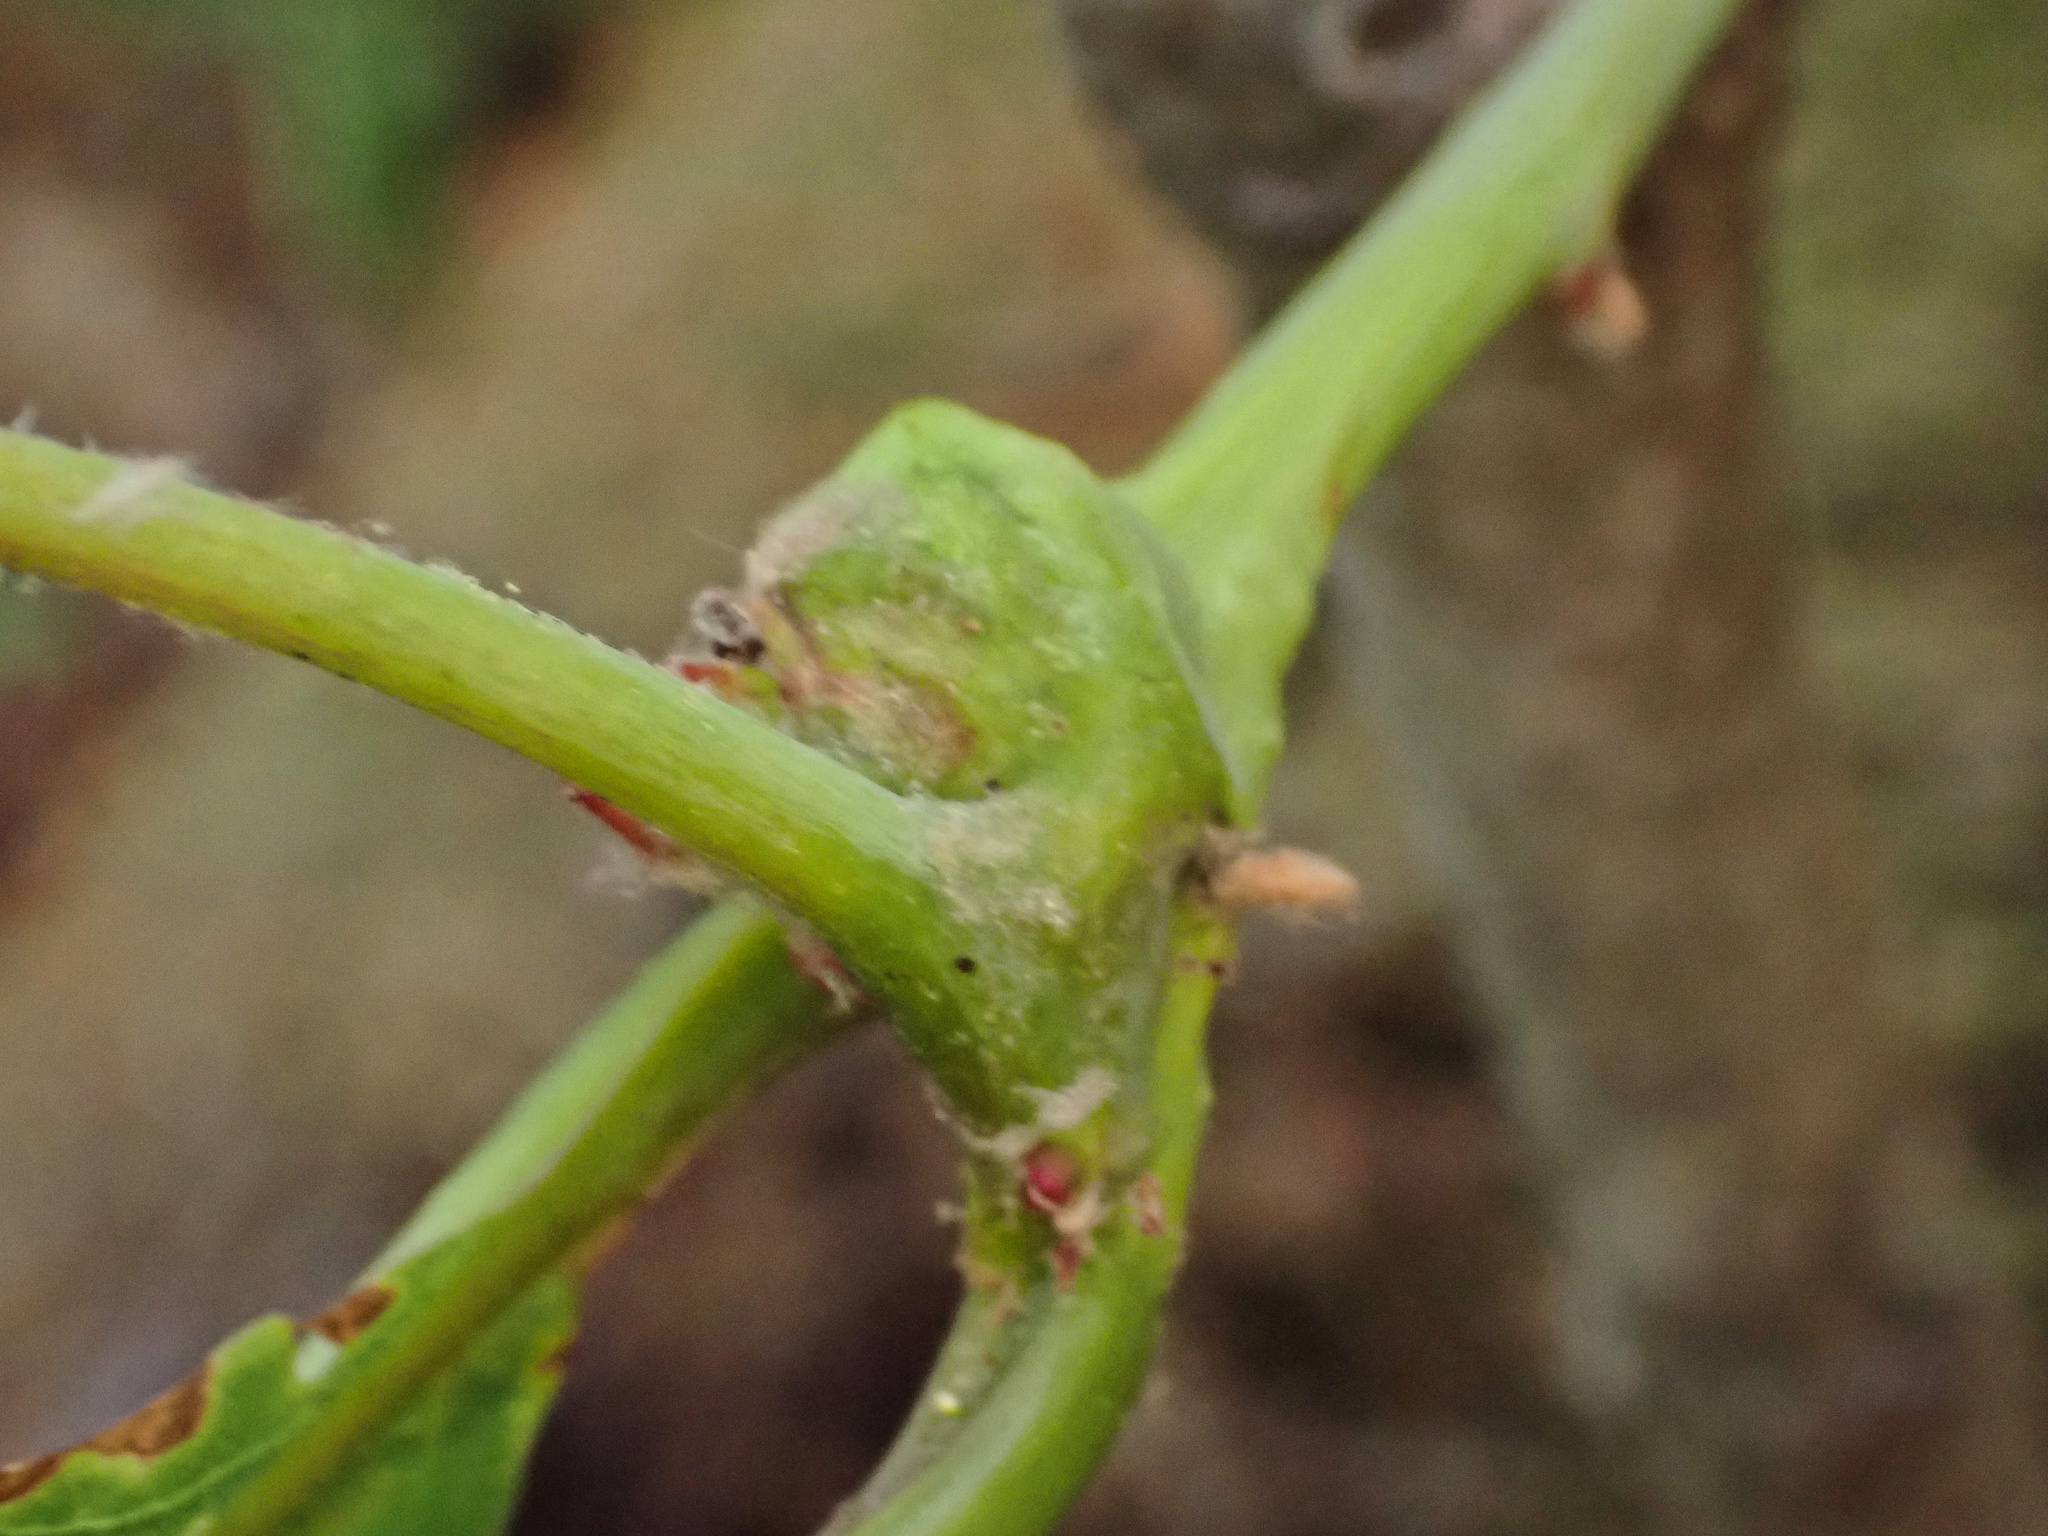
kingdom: Animalia
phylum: Arthropoda
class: Insecta
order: Hymenoptera
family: Cynipidae
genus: Neuroterus
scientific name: Neuroterus quercusbaccarum
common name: Common spangle gall
